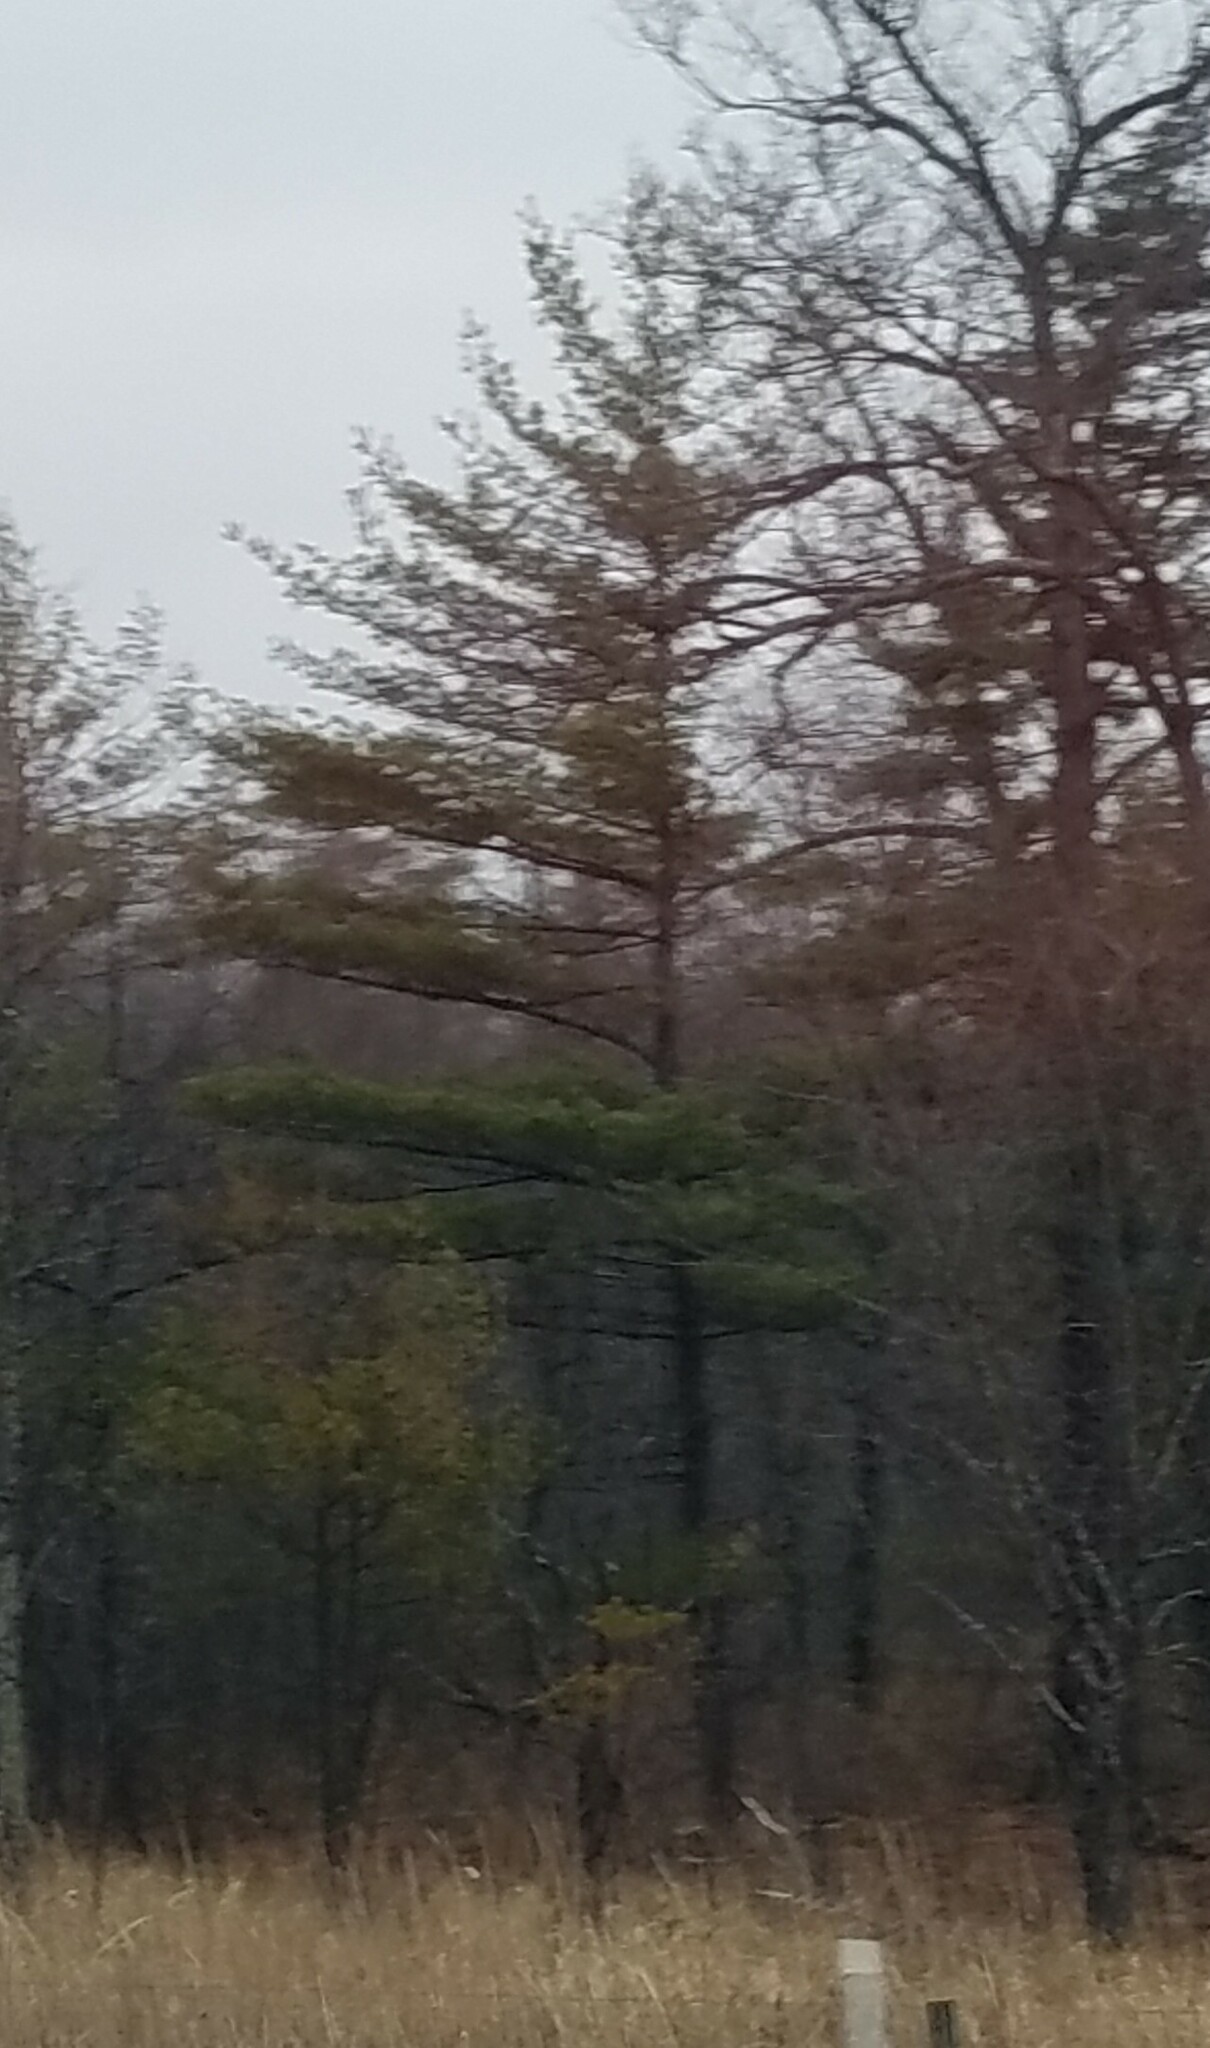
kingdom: Plantae
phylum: Tracheophyta
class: Pinopsida
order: Pinales
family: Pinaceae
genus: Pinus
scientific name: Pinus strobus
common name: Weymouth pine
